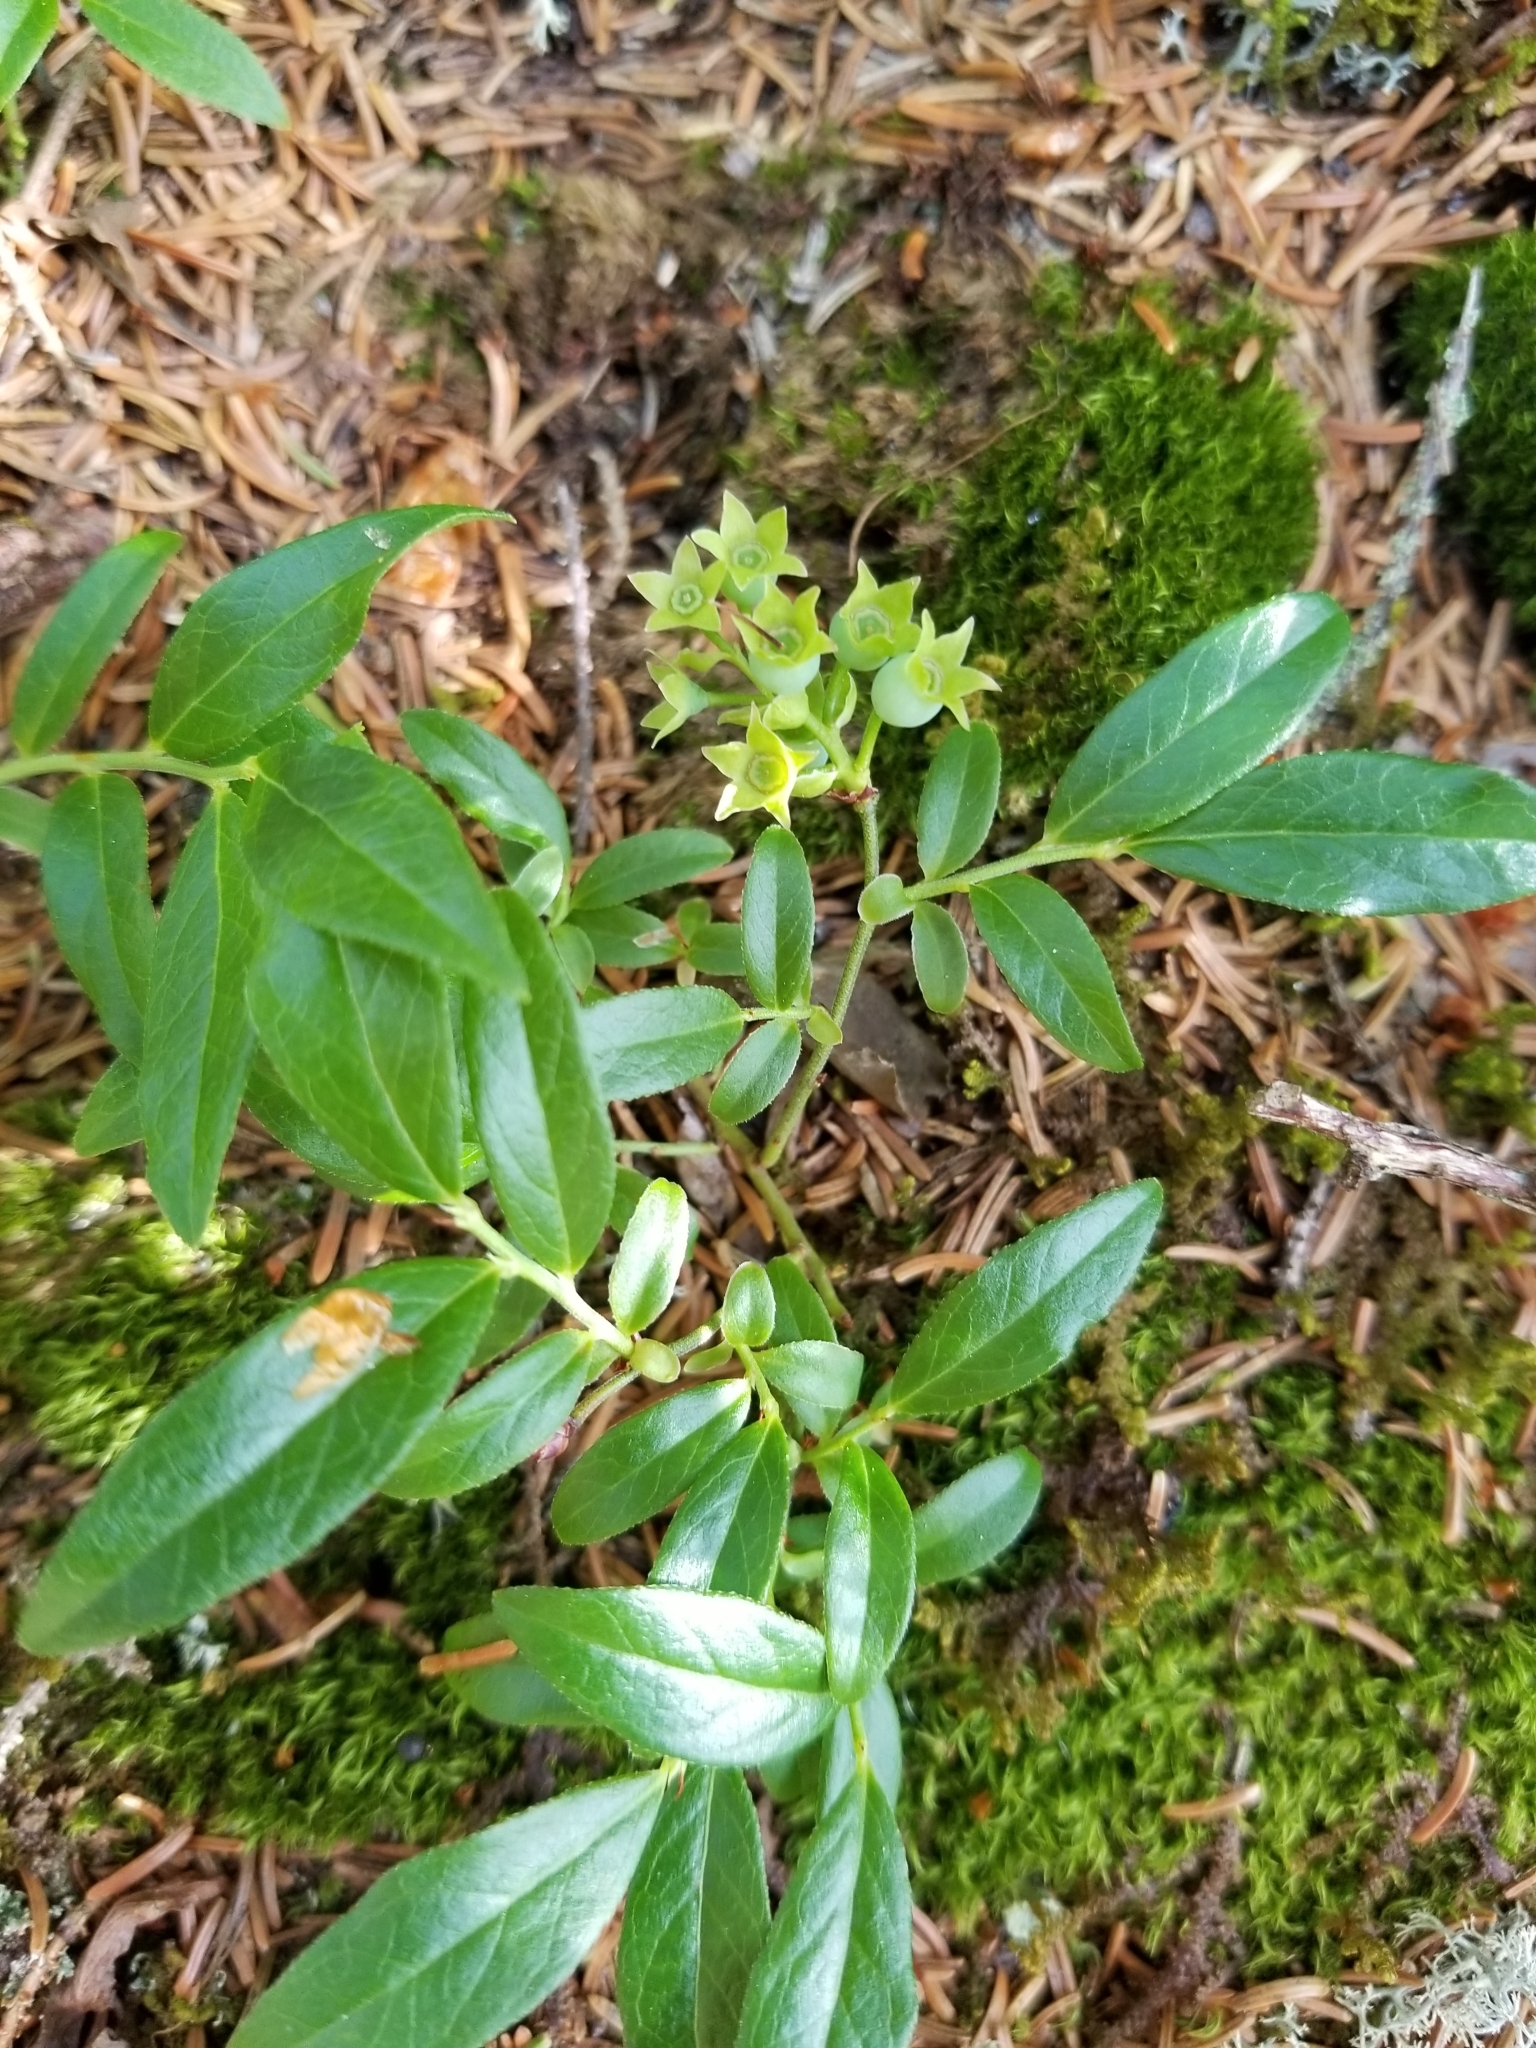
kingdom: Plantae
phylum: Tracheophyta
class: Magnoliopsida
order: Ericales
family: Ericaceae
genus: Vaccinium
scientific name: Vaccinium angustifolium
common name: Early lowbush blueberry
